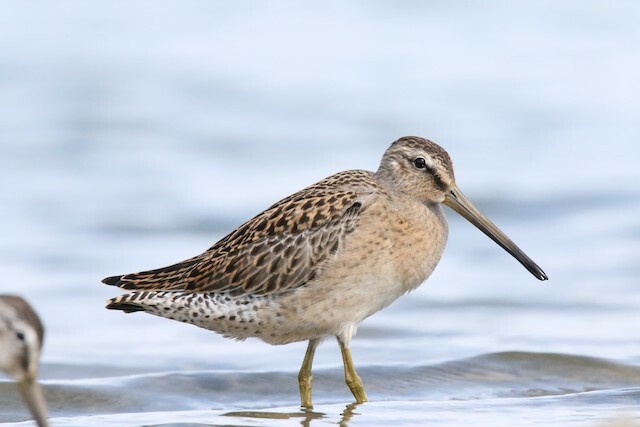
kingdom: Animalia
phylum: Chordata
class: Aves
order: Charadriiformes
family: Scolopacidae
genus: Limnodromus
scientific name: Limnodromus griseus
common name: Short-billed dowitcher
